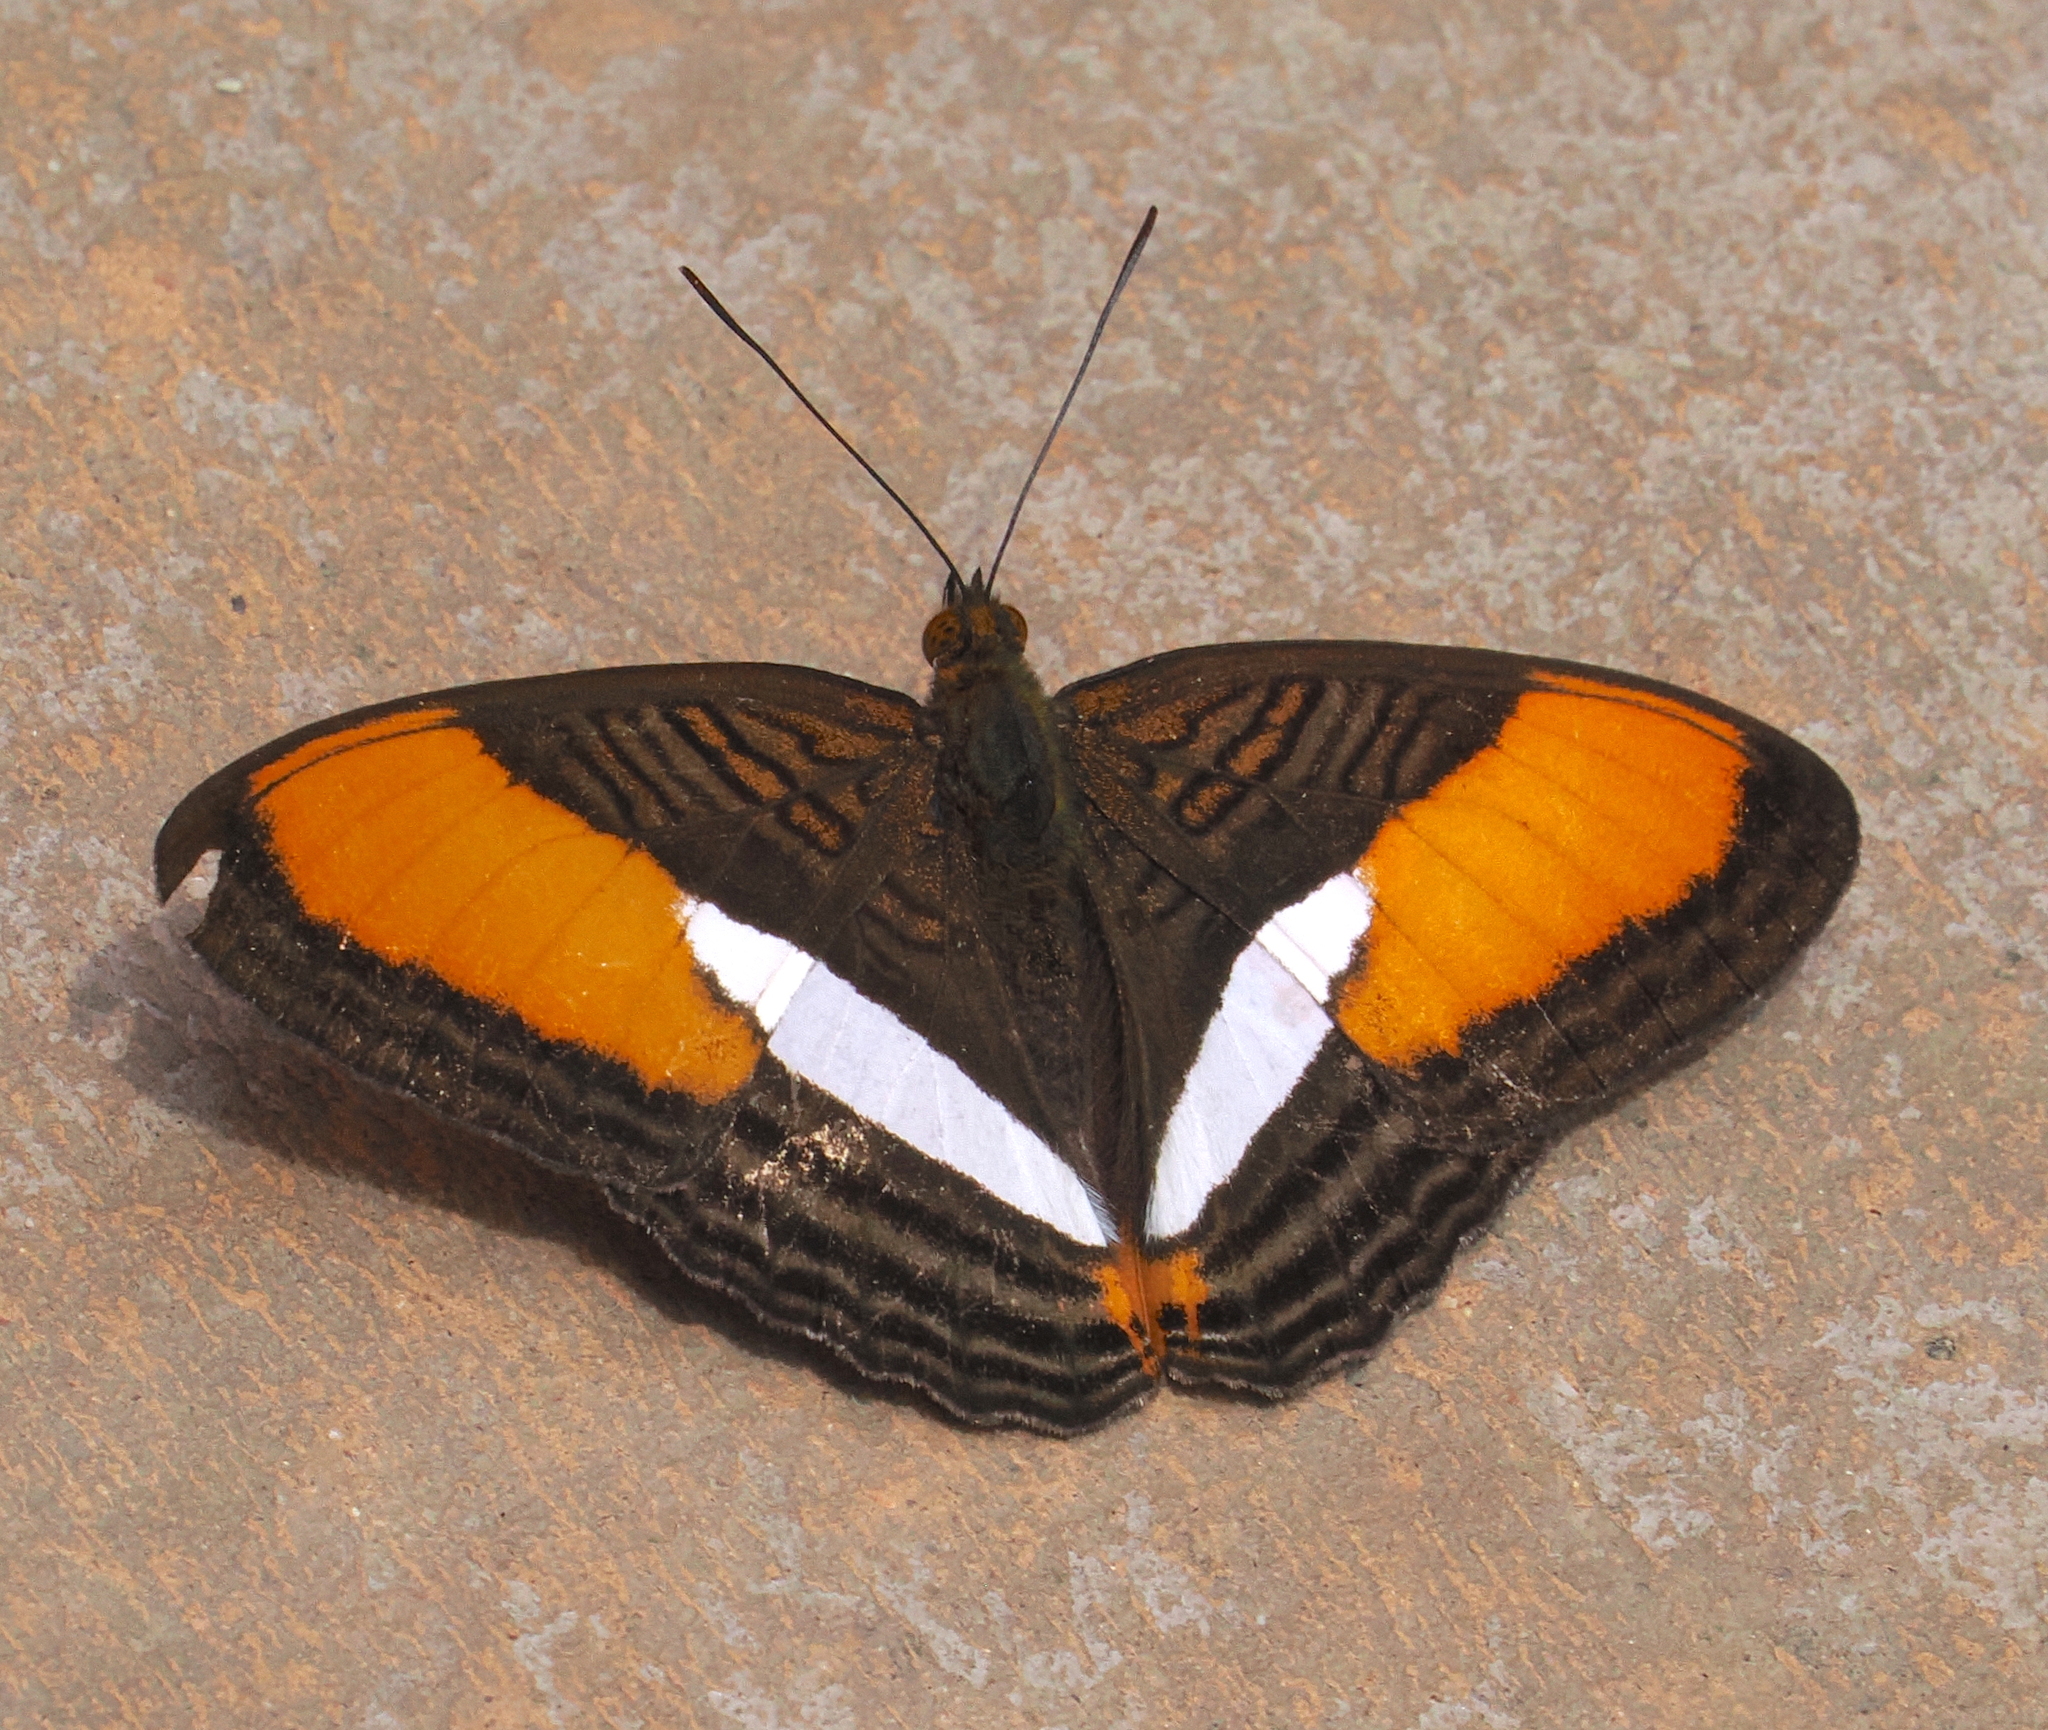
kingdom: Animalia
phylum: Arthropoda
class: Insecta
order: Lepidoptera
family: Nymphalidae
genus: Limenitis
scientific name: Limenitis cytherea
